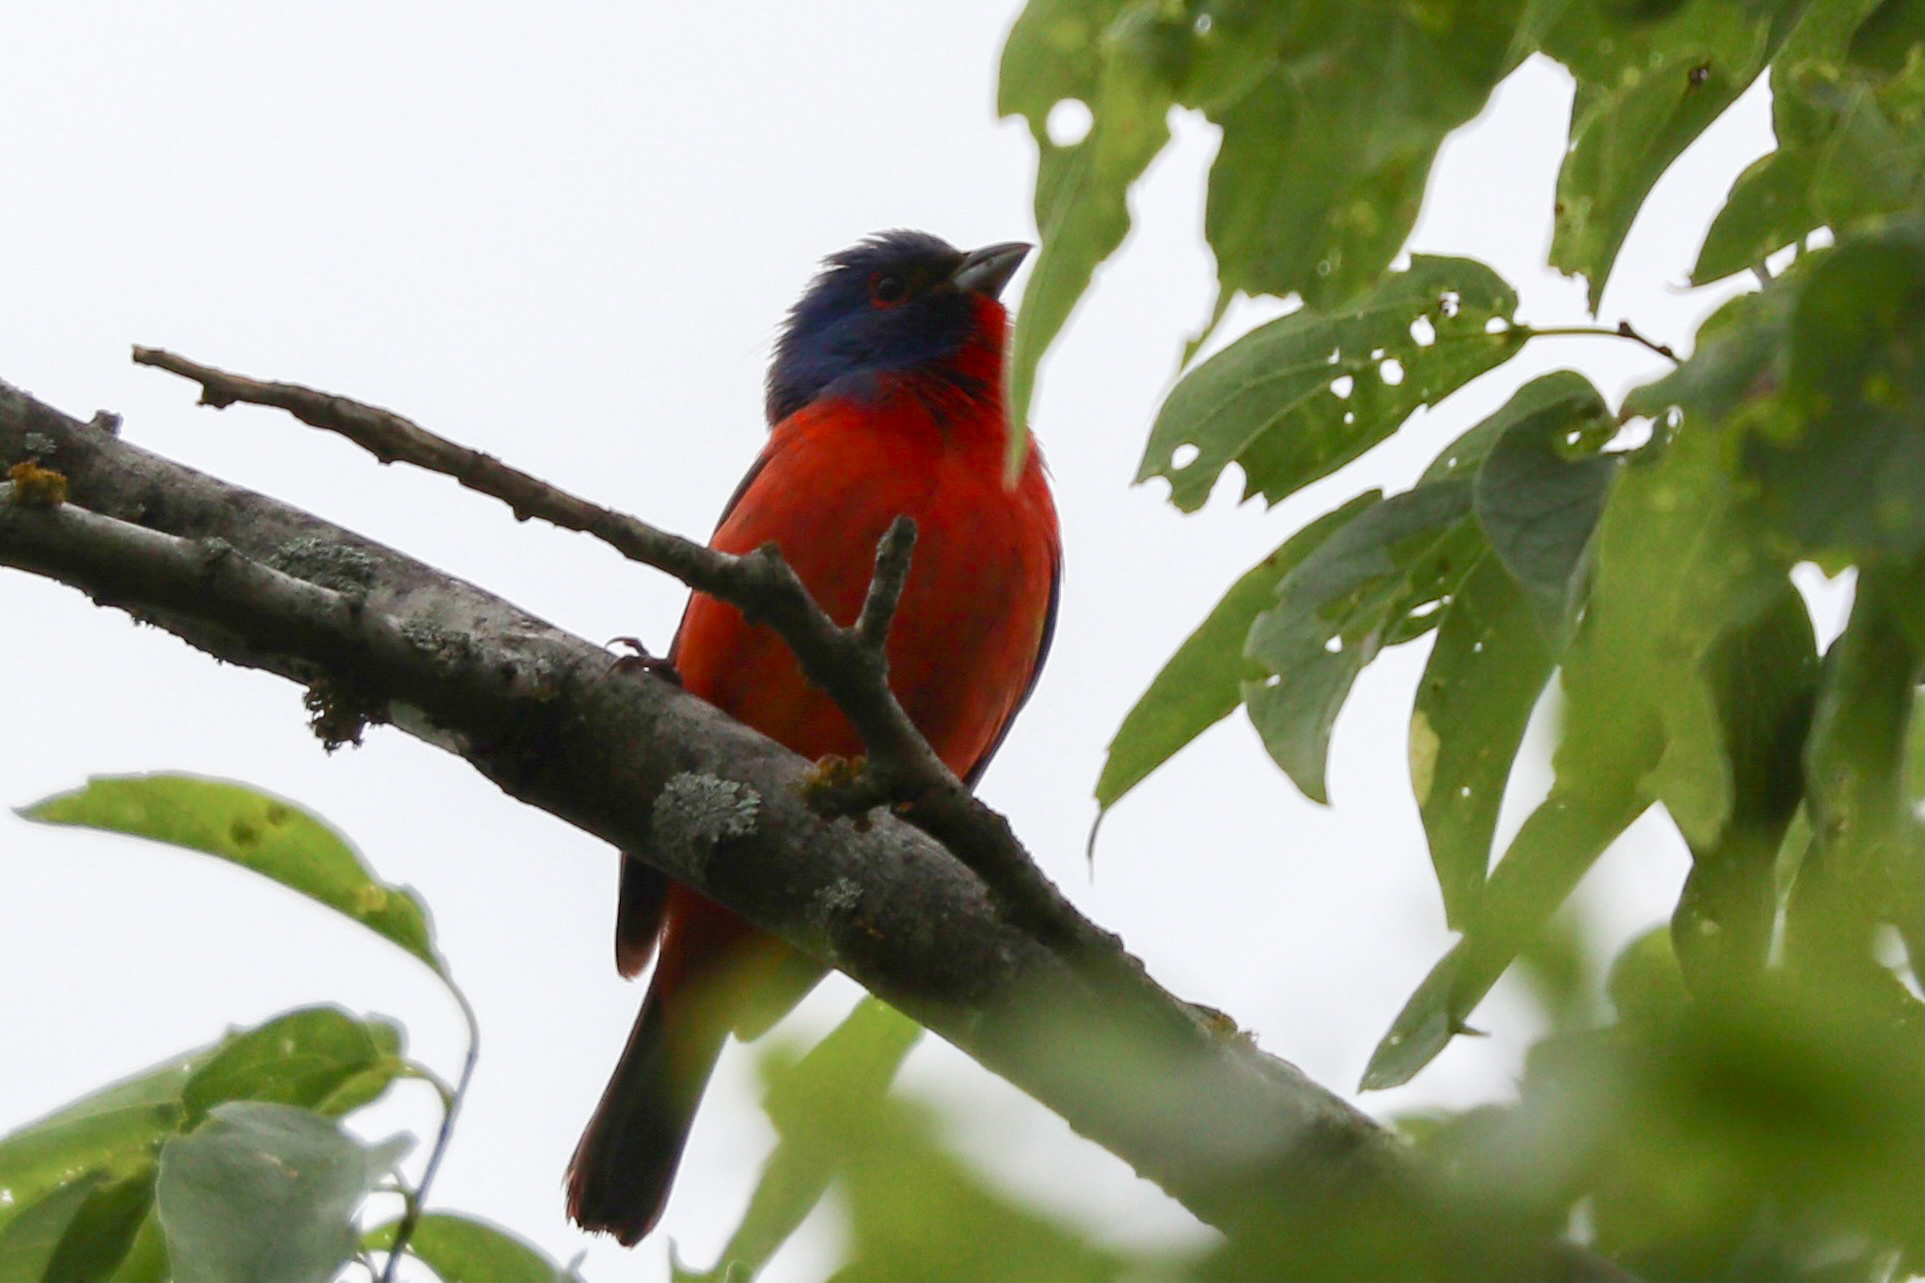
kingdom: Animalia
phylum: Chordata
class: Aves
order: Passeriformes
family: Cardinalidae
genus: Passerina
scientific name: Passerina ciris
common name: Painted bunting
